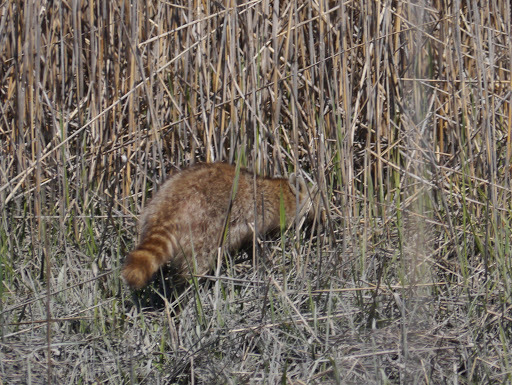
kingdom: Animalia
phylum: Chordata
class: Mammalia
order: Carnivora
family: Procyonidae
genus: Procyon
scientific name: Procyon lotor
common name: Raccoon
